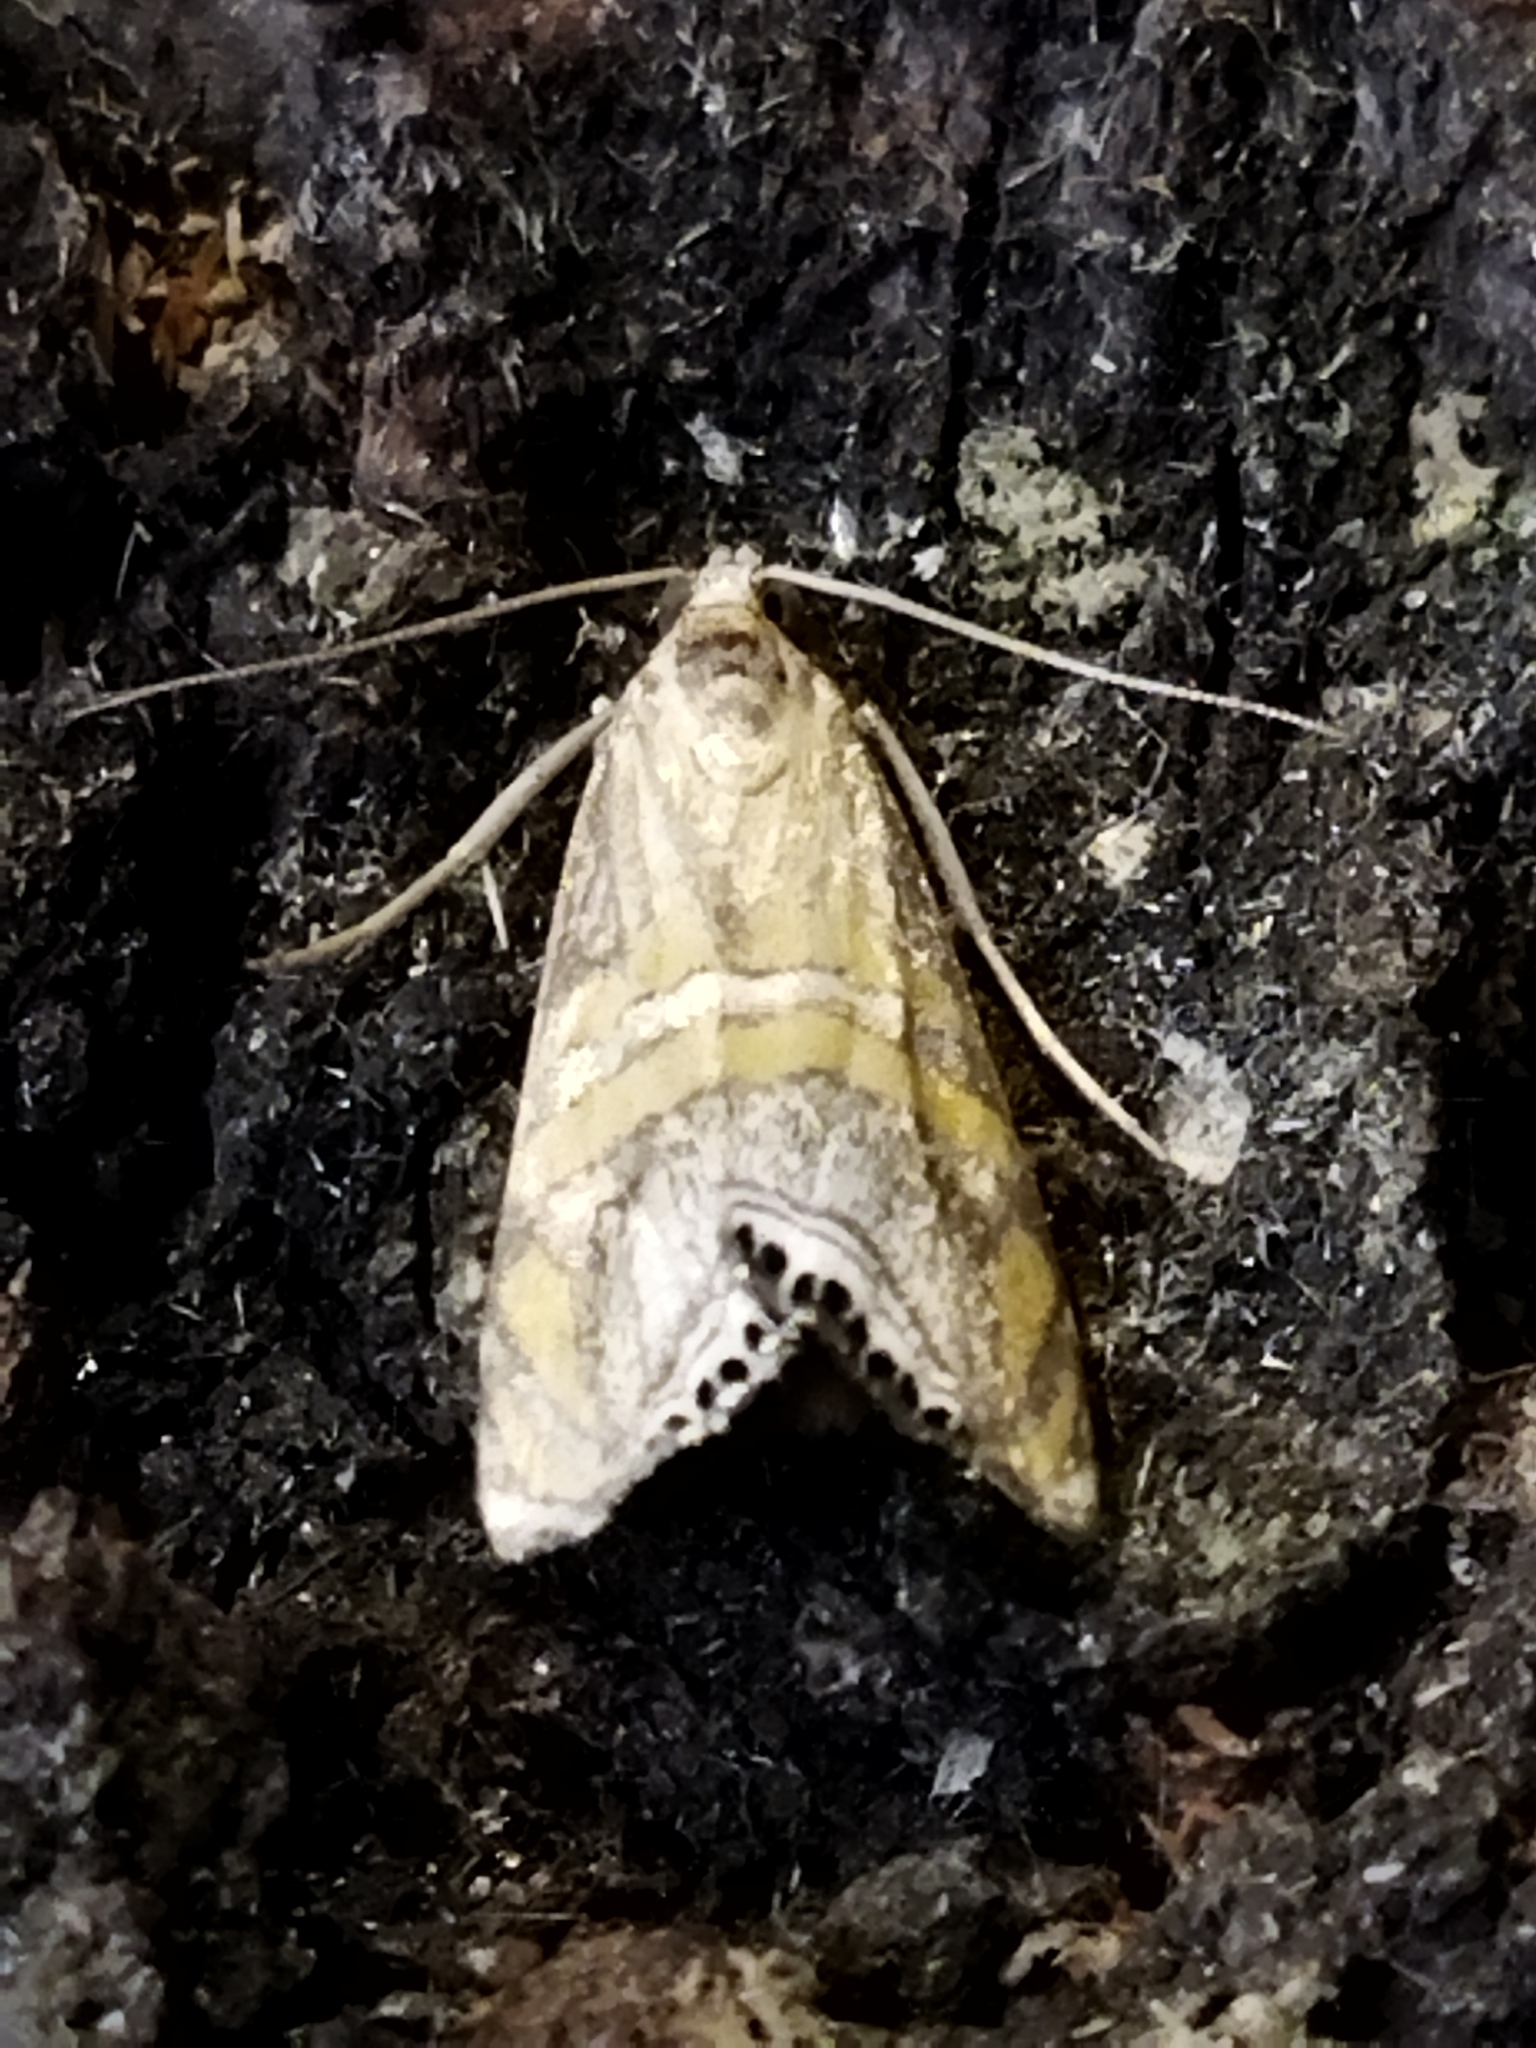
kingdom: Animalia
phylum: Arthropoda
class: Insecta
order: Lepidoptera
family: Crambidae
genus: Euchromius
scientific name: Euchromius bella
